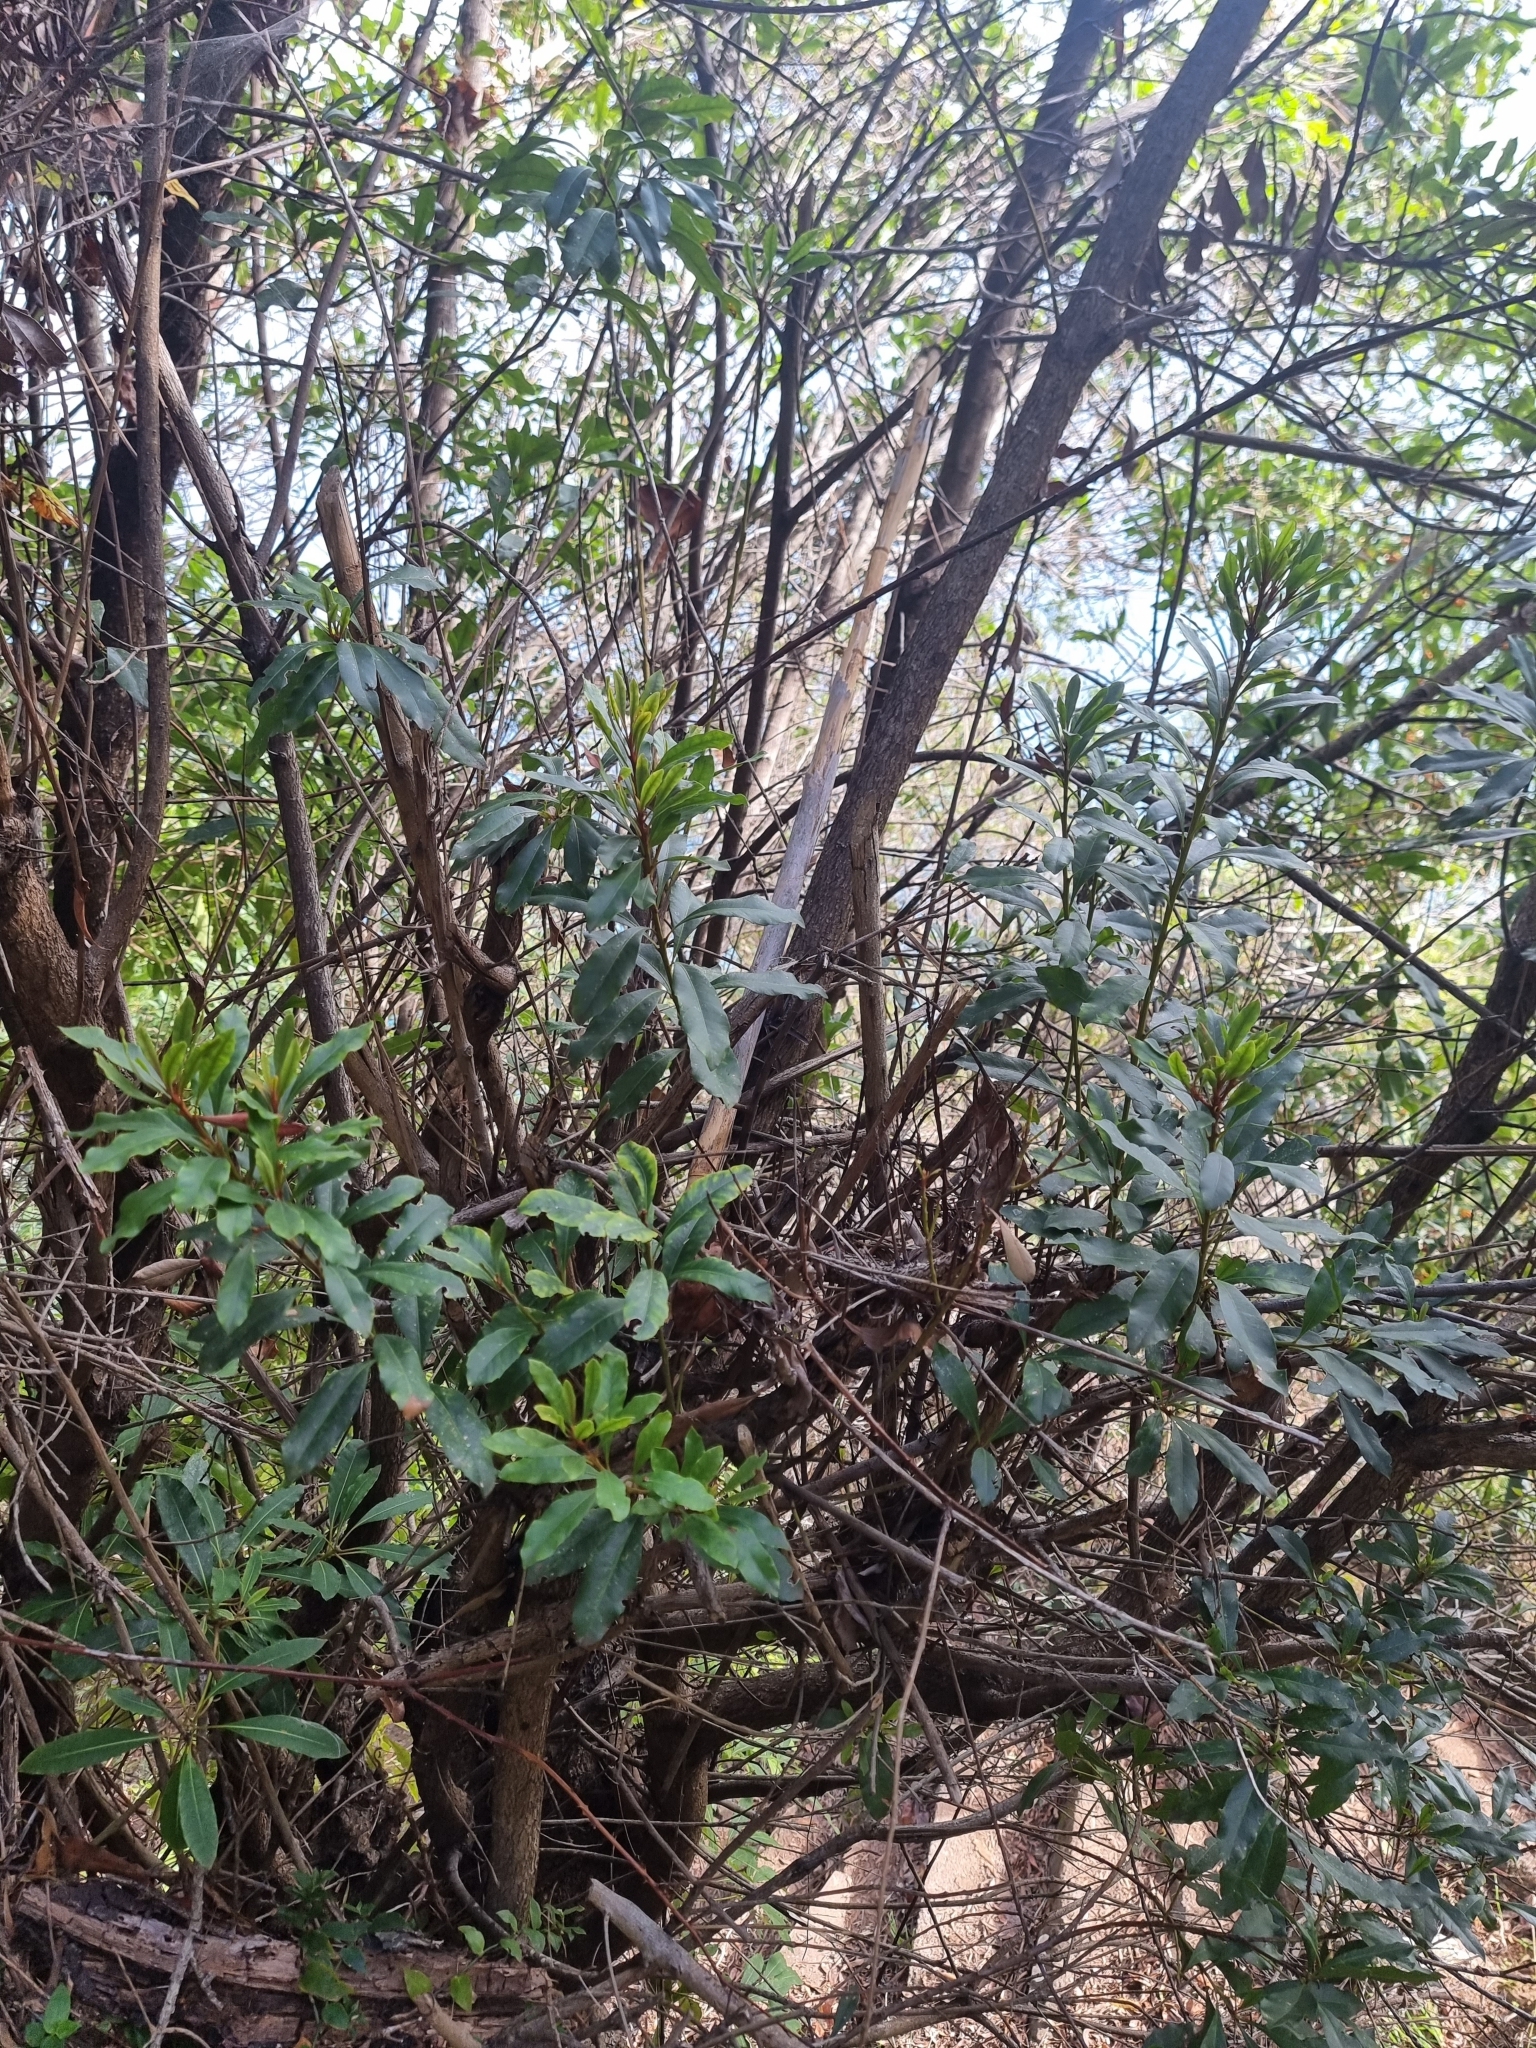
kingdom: Plantae
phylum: Tracheophyta
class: Magnoliopsida
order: Fagales
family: Myricaceae
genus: Morella
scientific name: Morella faya
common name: Firetree
